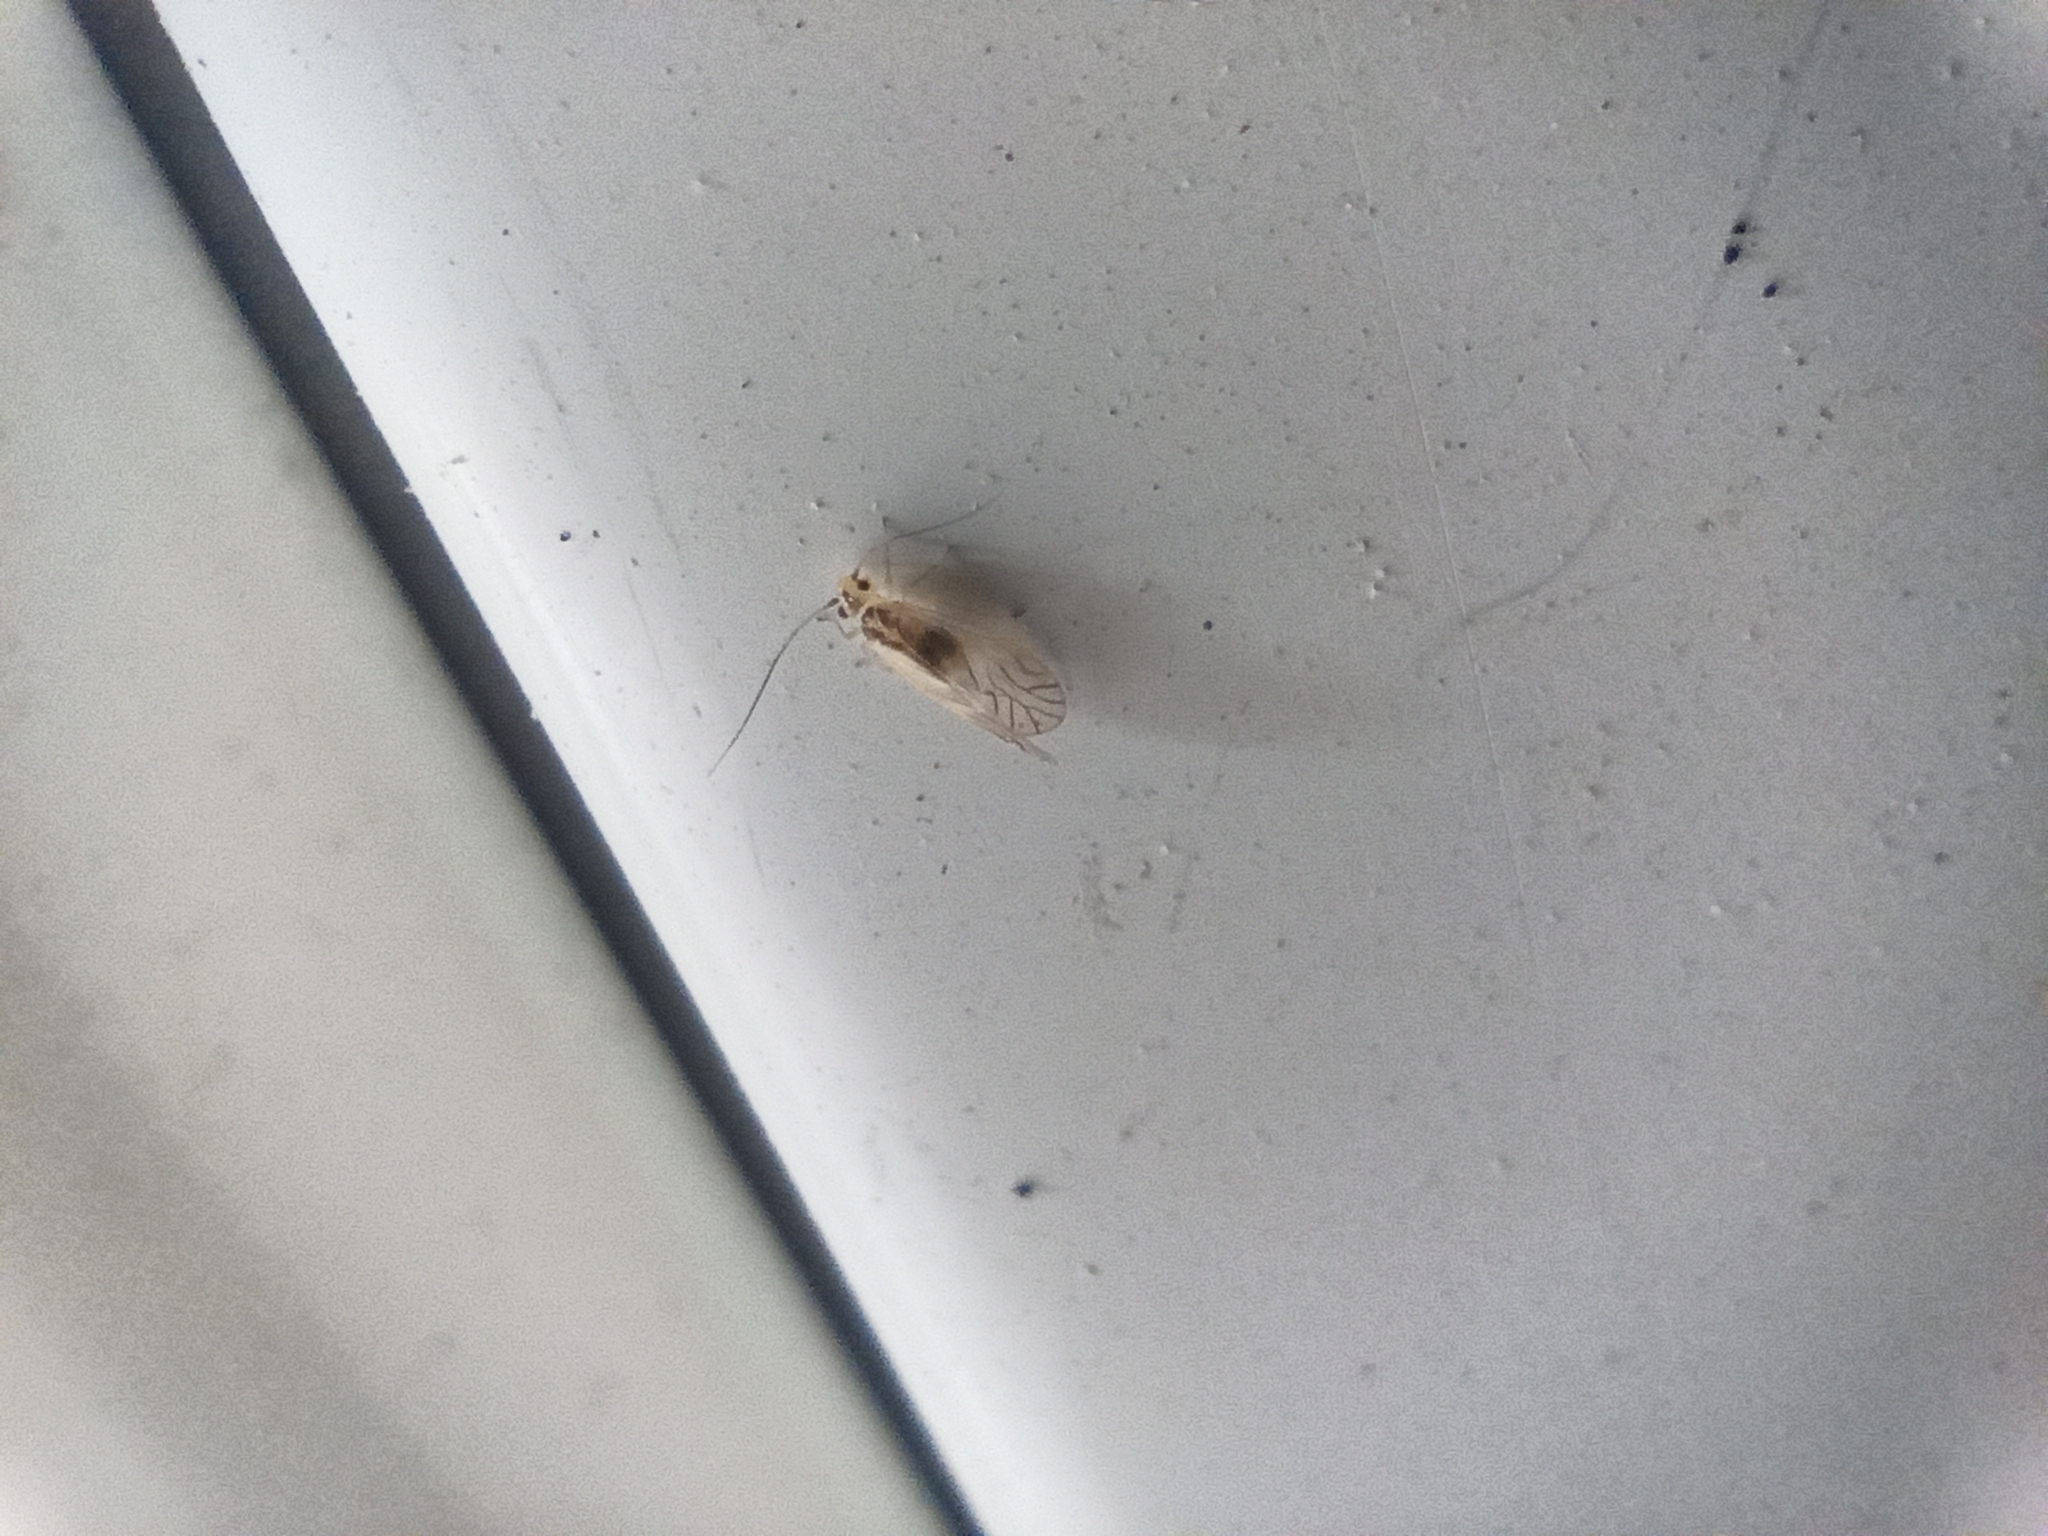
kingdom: Animalia
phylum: Arthropoda
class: Insecta
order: Psocodea
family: Caeciliusidae
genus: Valenzuela
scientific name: Valenzuela flavidus
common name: Yellow barklouse
